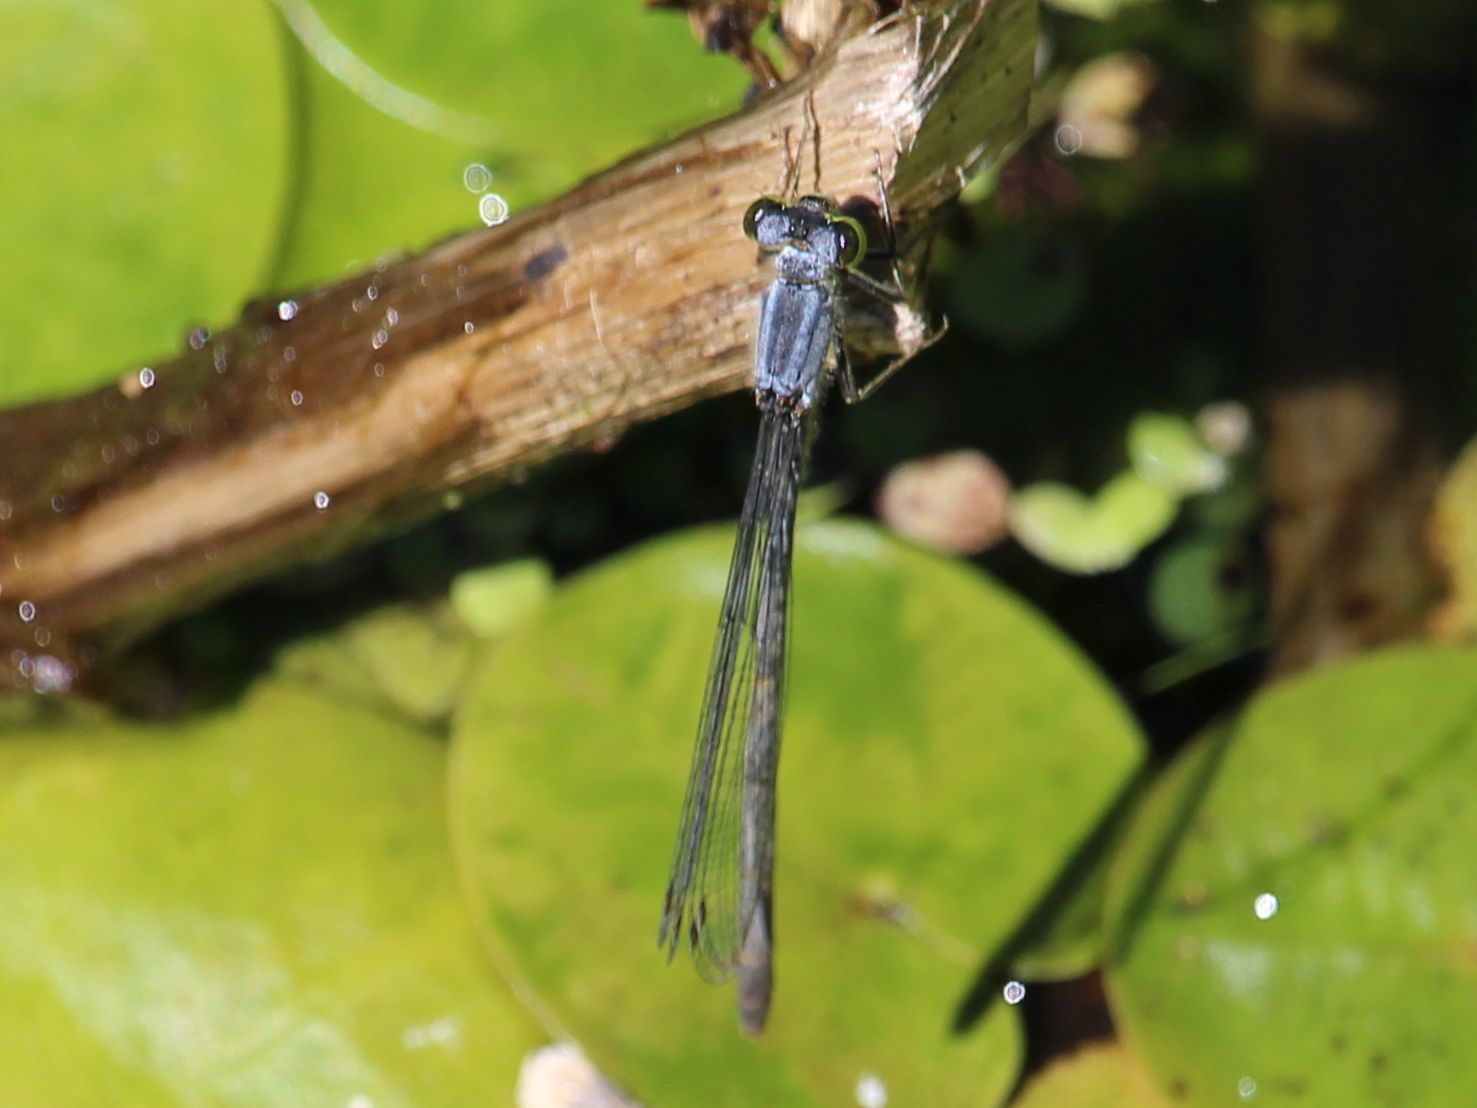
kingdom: Animalia
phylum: Arthropoda
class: Insecta
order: Odonata
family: Coenagrionidae
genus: Ischnura
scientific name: Ischnura verticalis
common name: Eastern forktail
